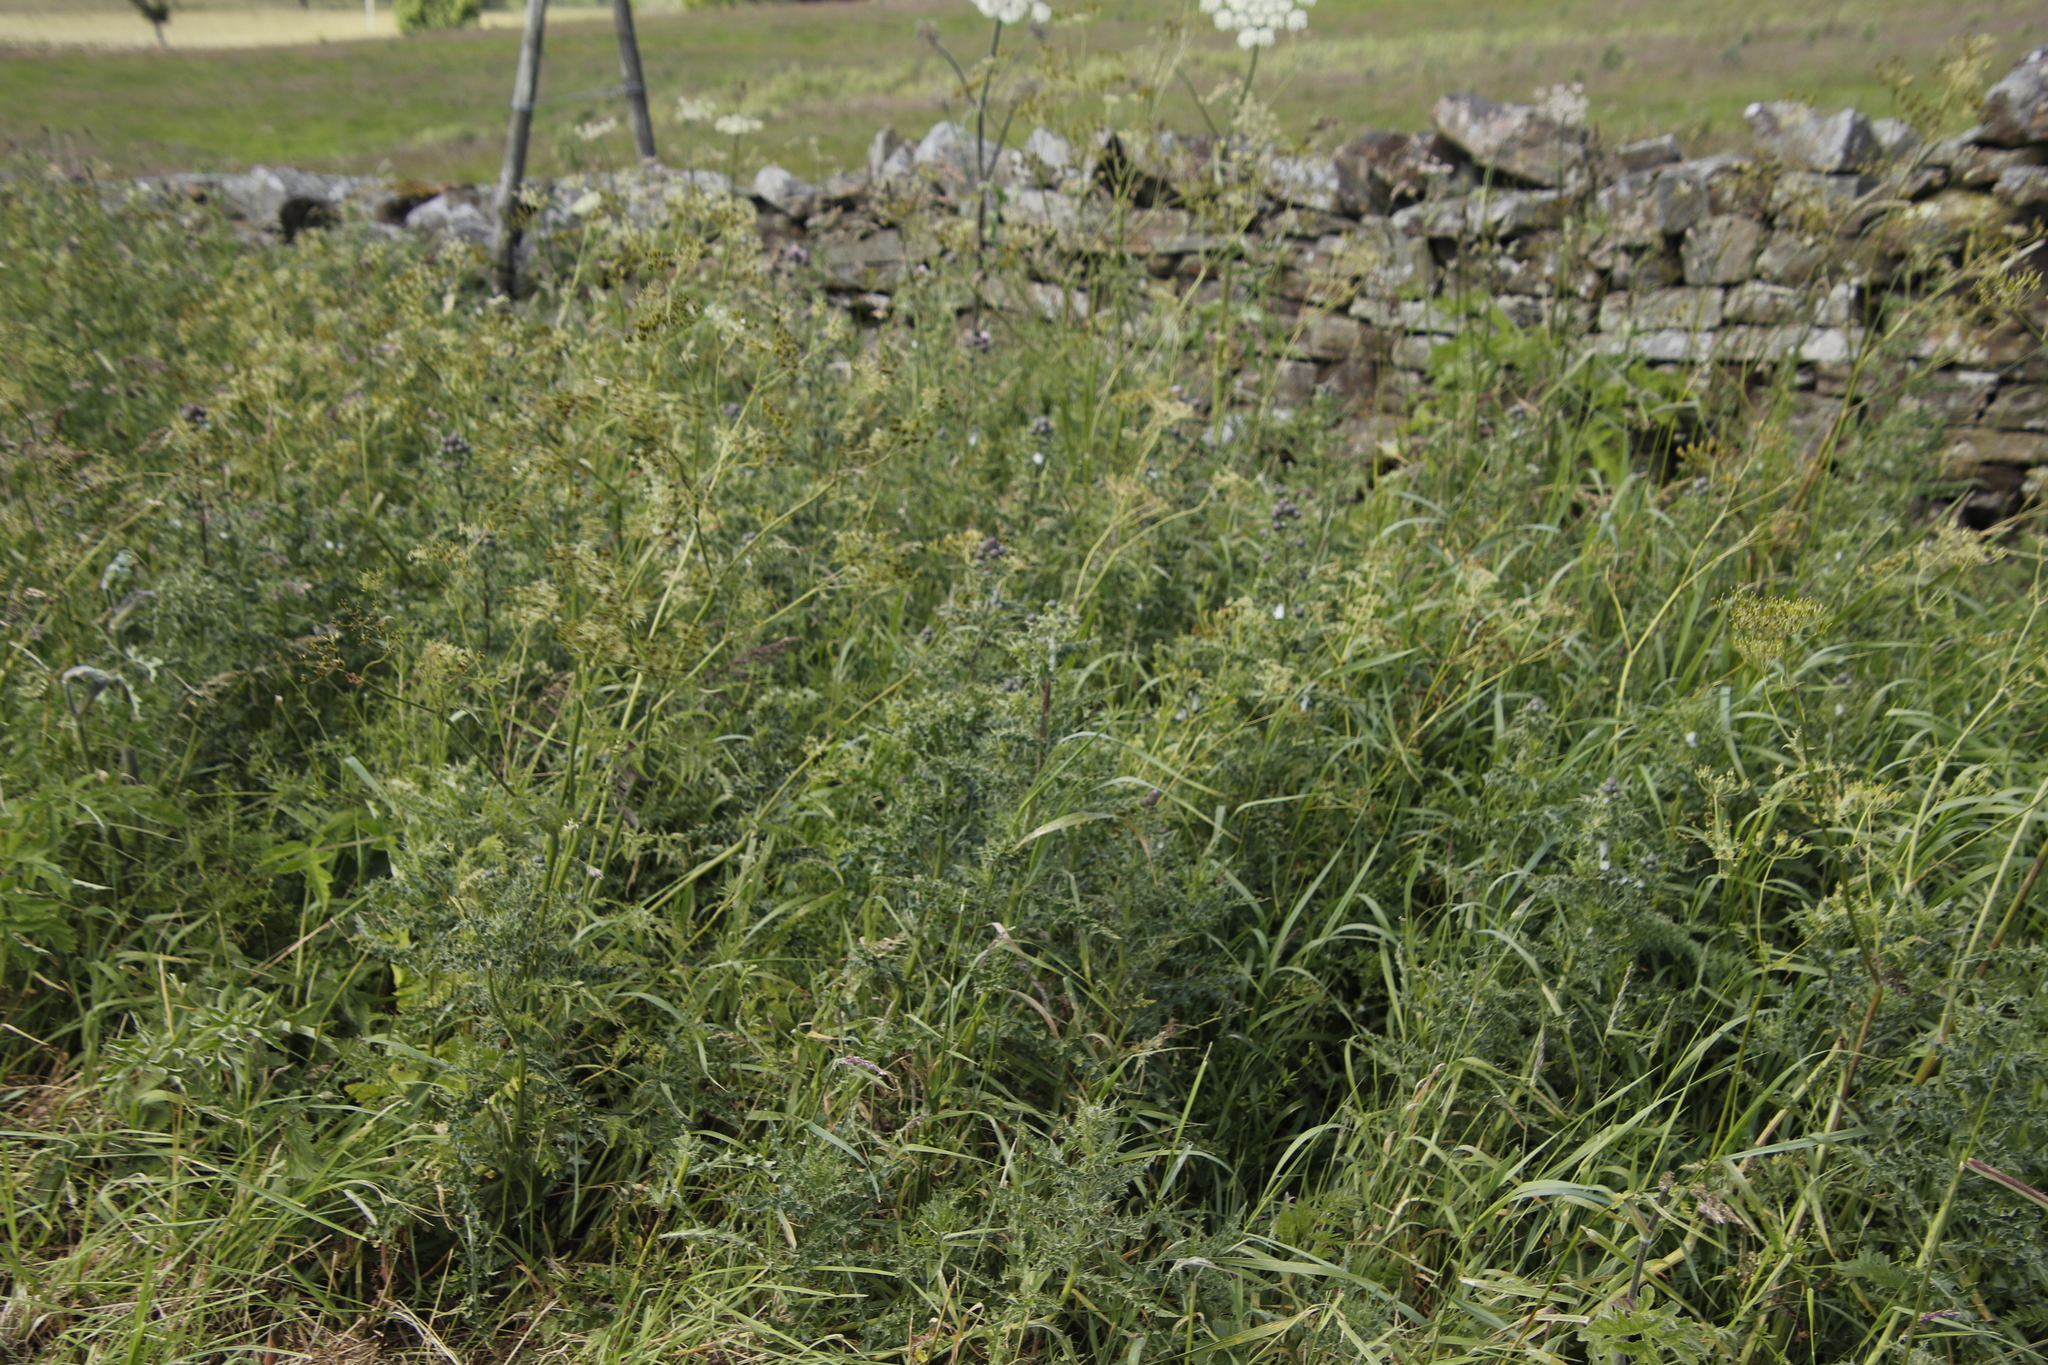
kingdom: Plantae
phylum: Tracheophyta
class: Magnoliopsida
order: Asterales
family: Asteraceae
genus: Cirsium
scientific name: Cirsium arvense
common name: Creeping thistle
